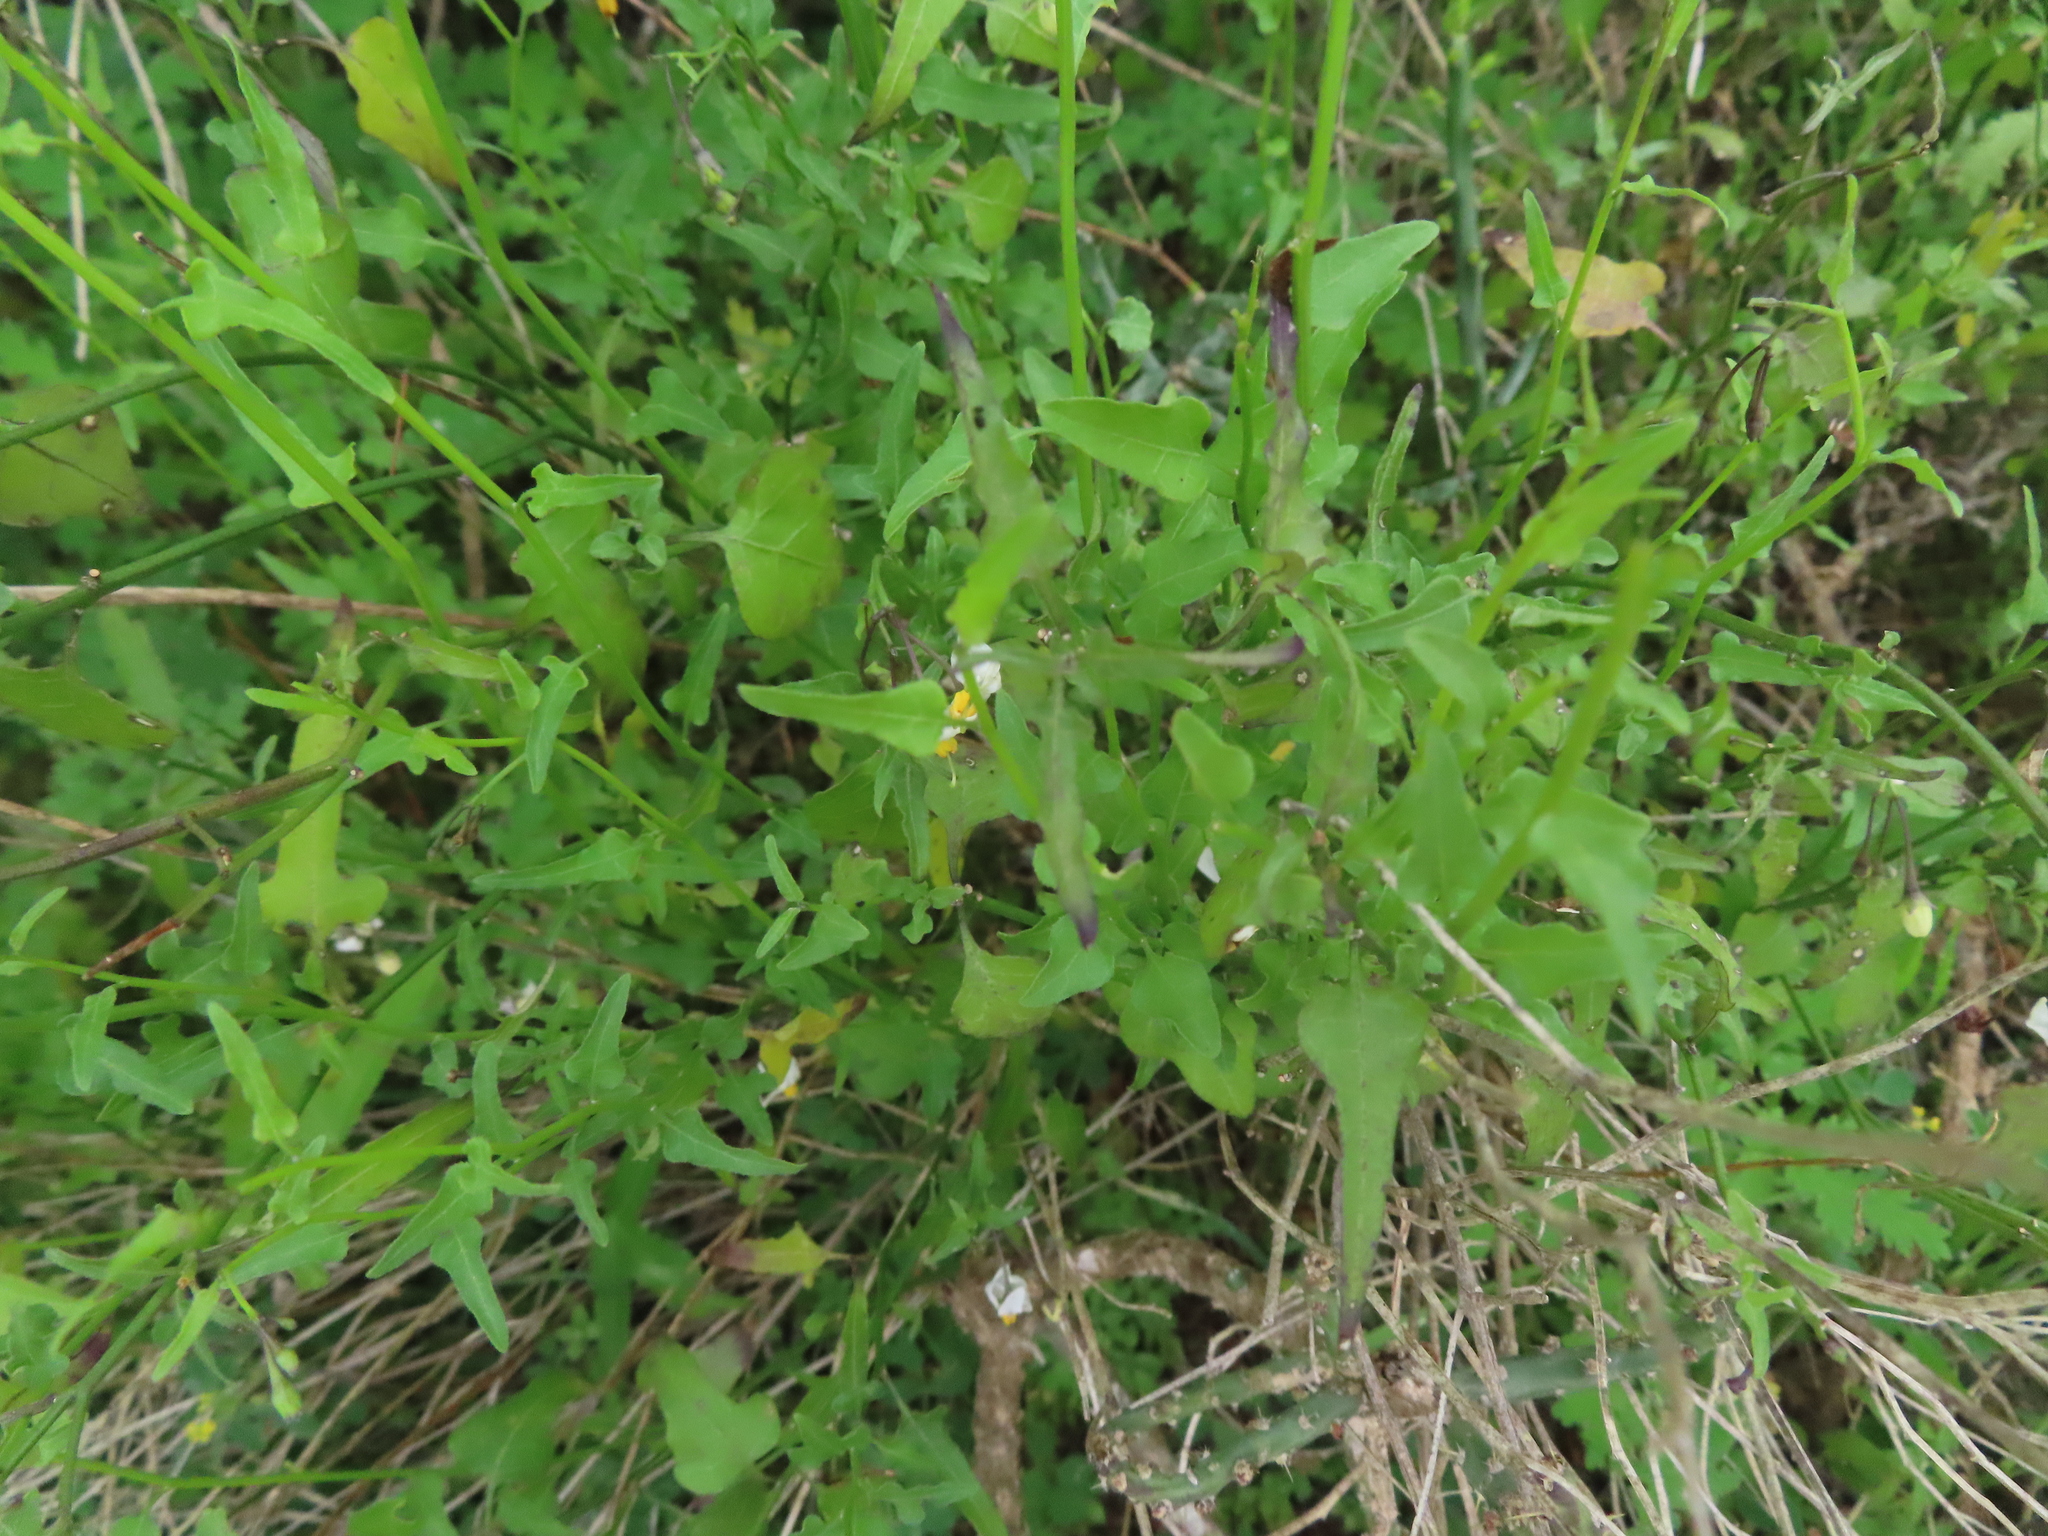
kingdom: Plantae
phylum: Tracheophyta
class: Magnoliopsida
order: Solanales
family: Solanaceae
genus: Solanum
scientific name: Solanum triquetrum
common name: Texas nightshade
